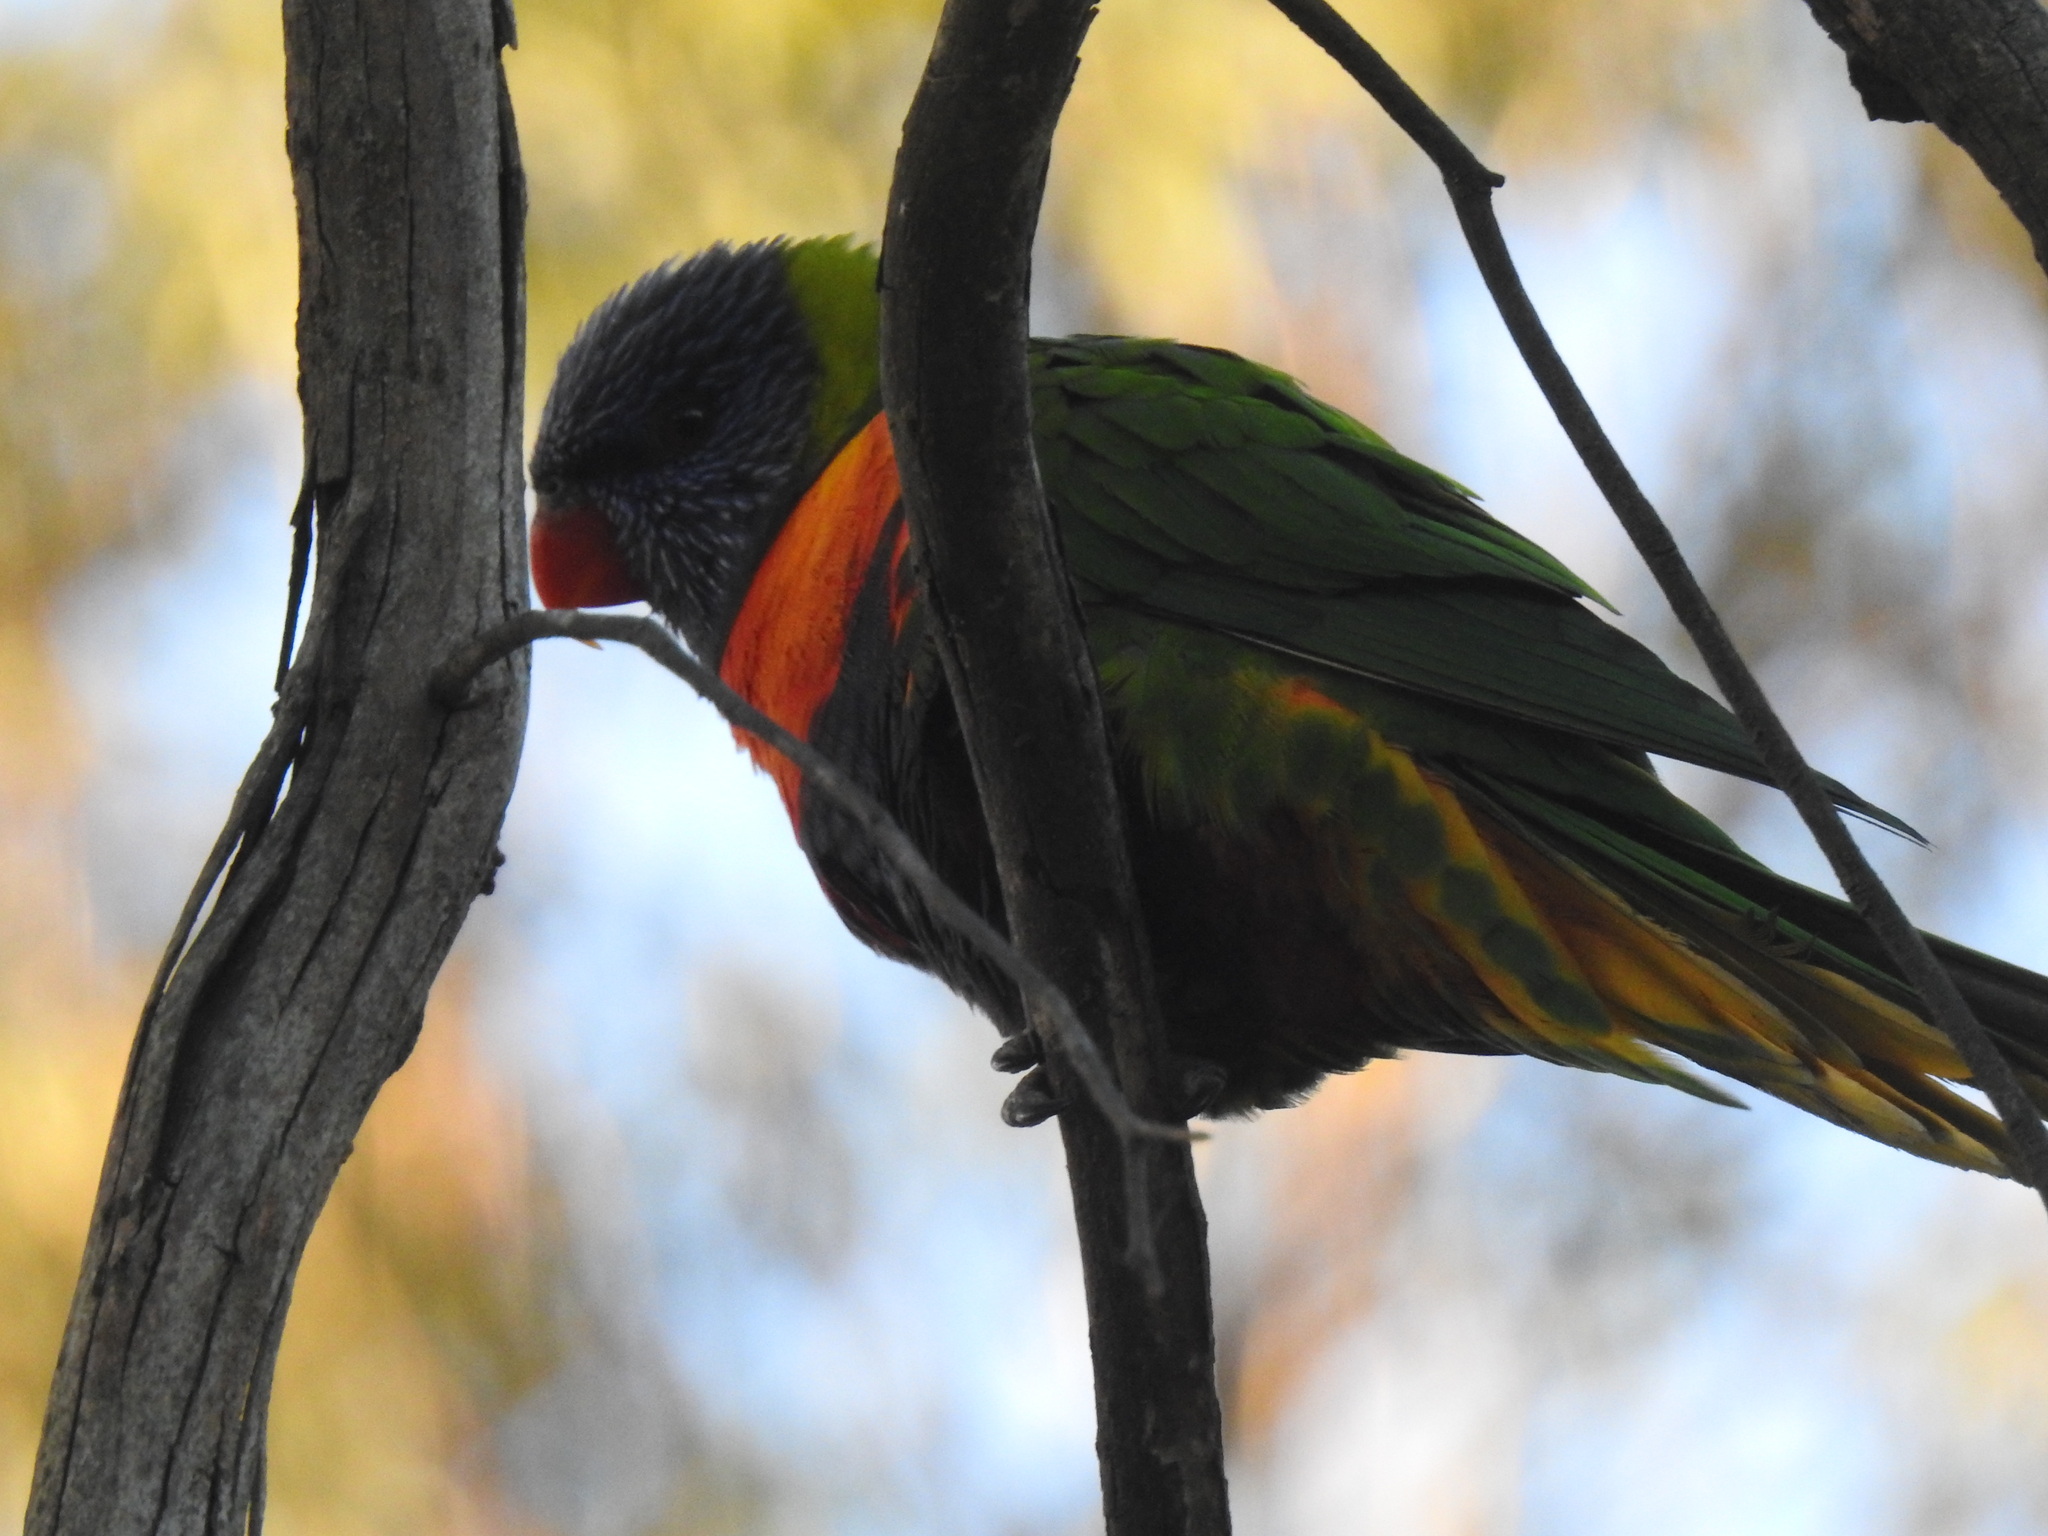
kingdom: Animalia
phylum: Chordata
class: Aves
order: Psittaciformes
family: Psittacidae
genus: Trichoglossus
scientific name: Trichoglossus haematodus
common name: Coconut lorikeet
